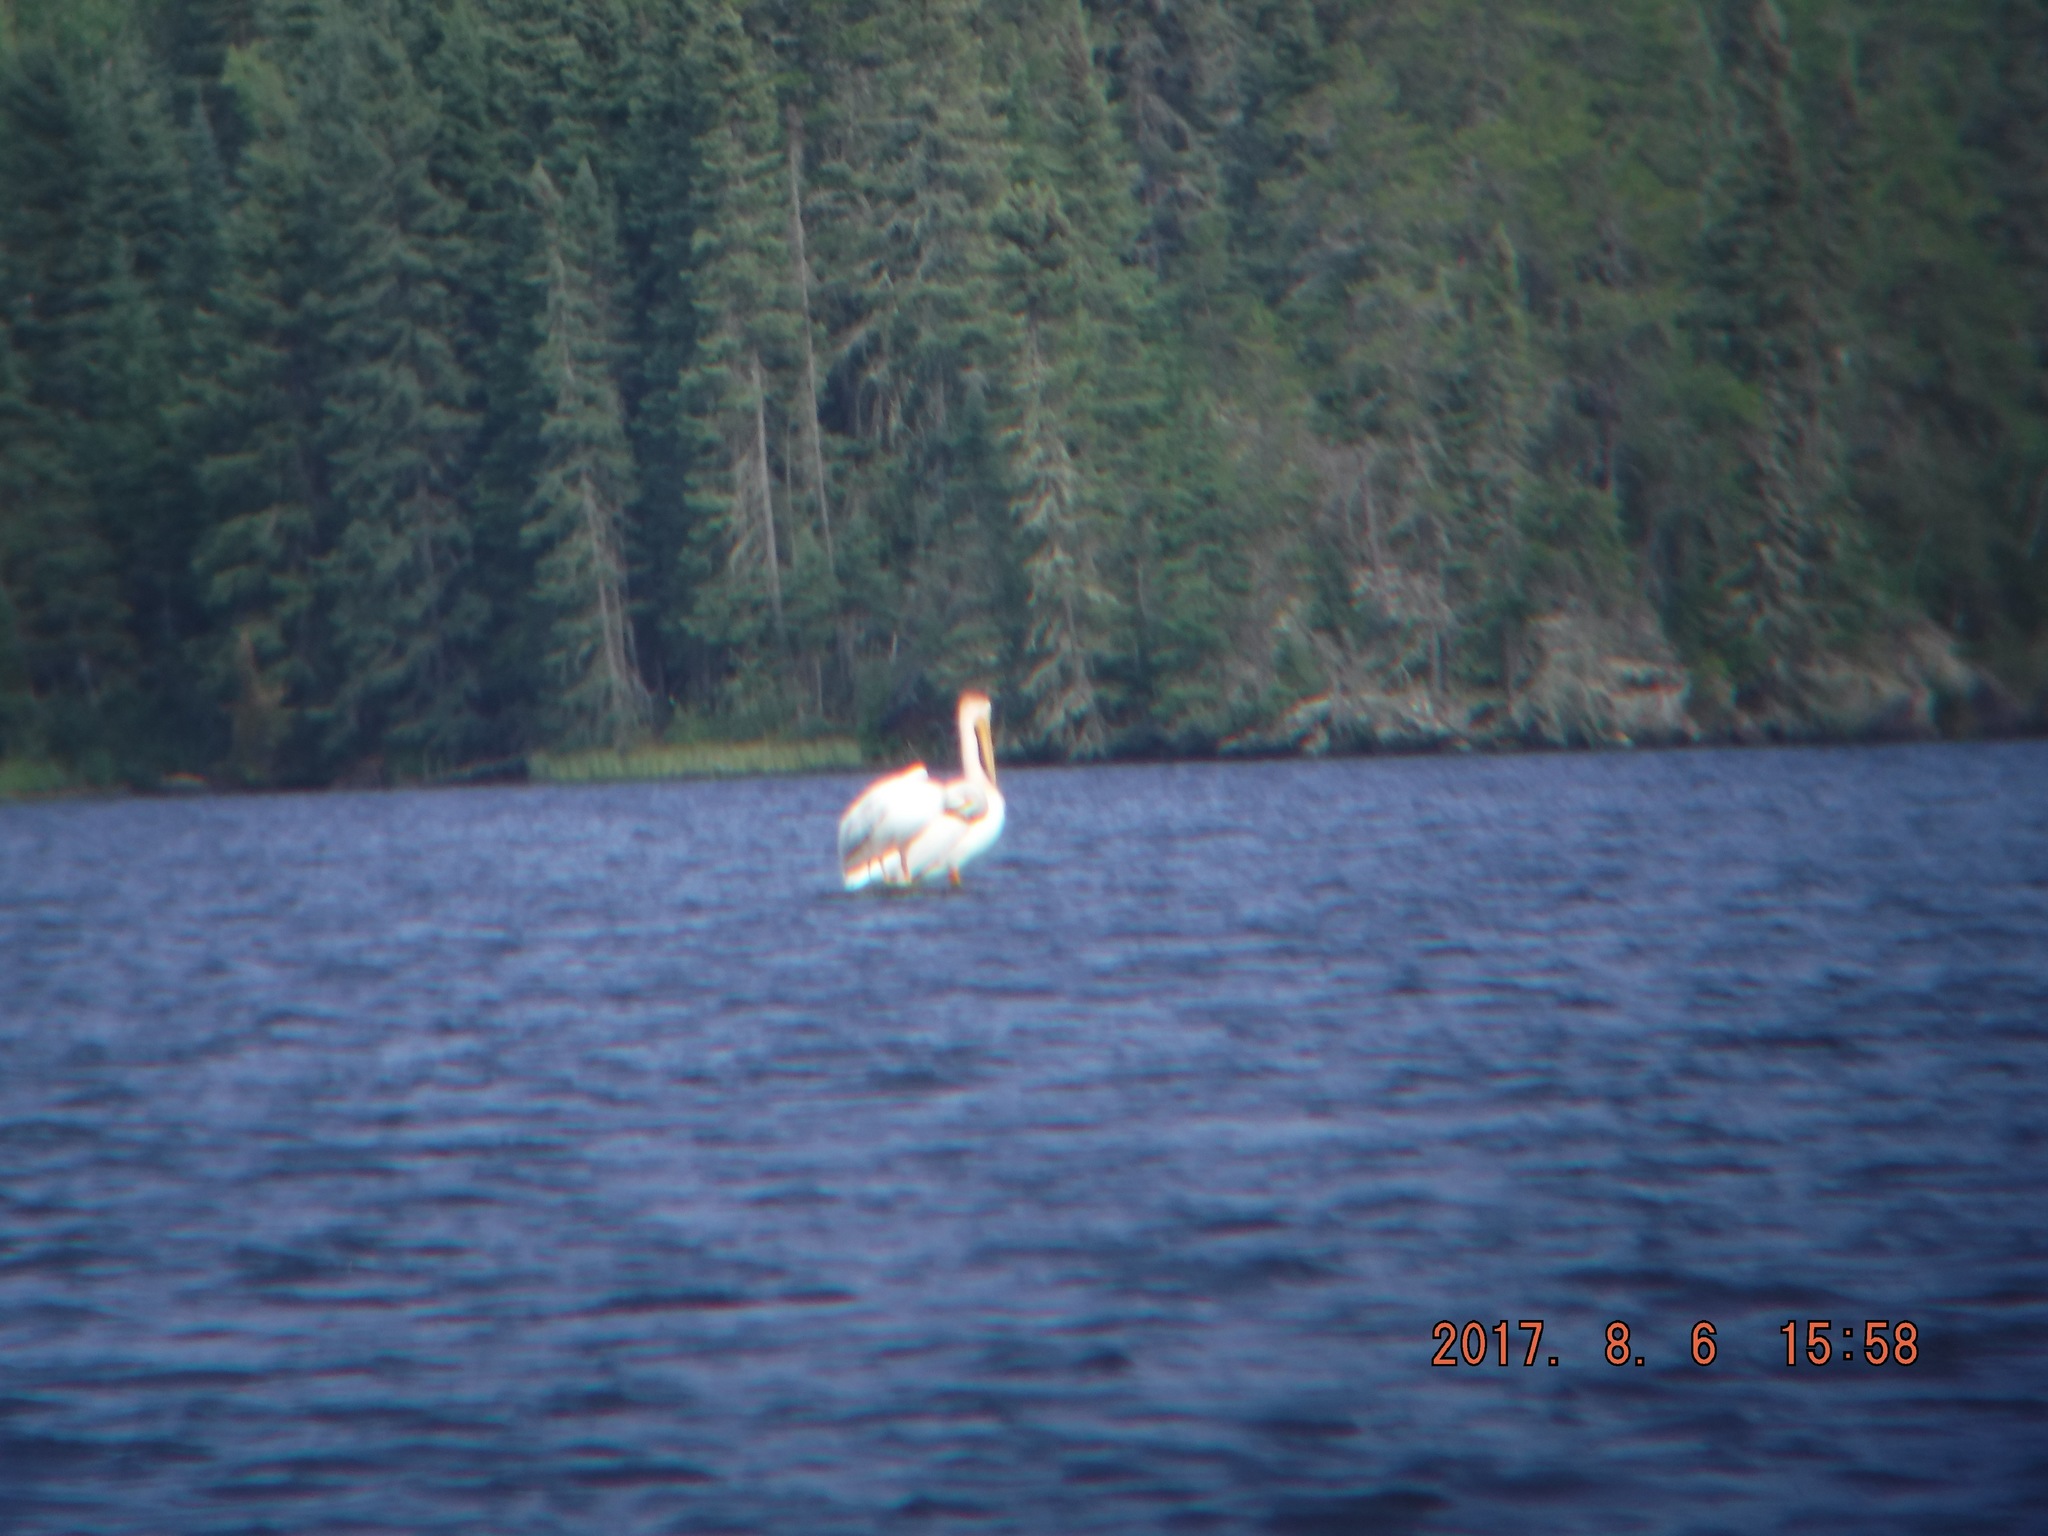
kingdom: Animalia
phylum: Chordata
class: Aves
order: Pelecaniformes
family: Pelecanidae
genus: Pelecanus
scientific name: Pelecanus erythrorhynchos
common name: American white pelican
